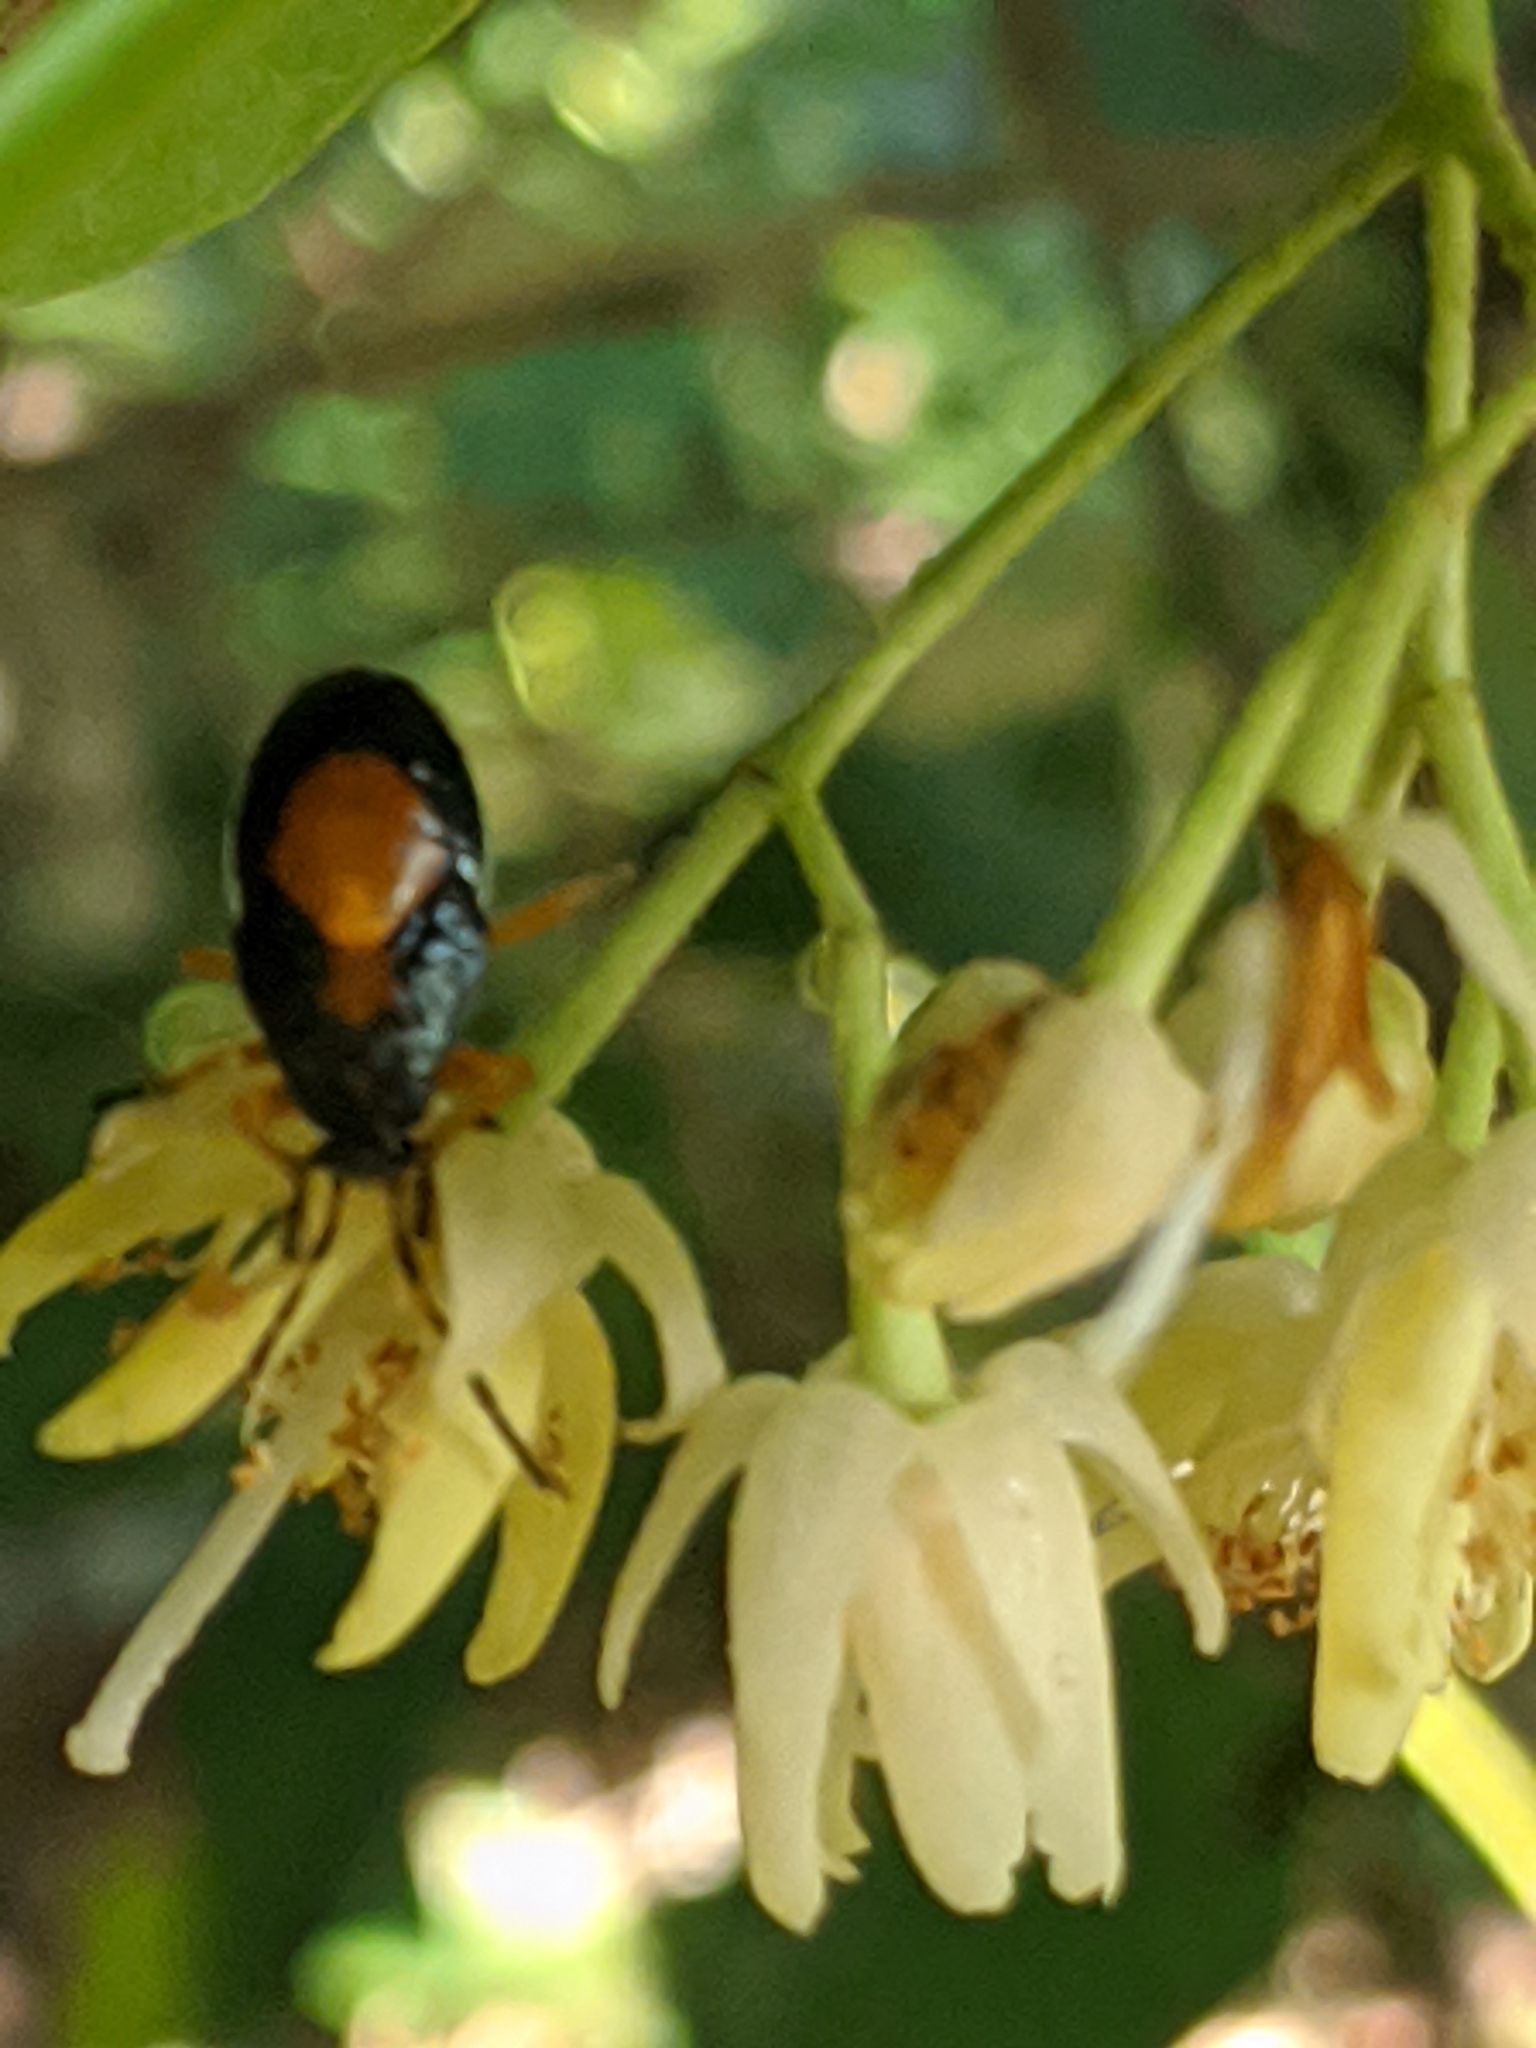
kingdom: Plantae
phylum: Tracheophyta
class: Magnoliopsida
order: Malvales
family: Malvaceae
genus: Tilia
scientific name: Tilia americana
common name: Basswood
